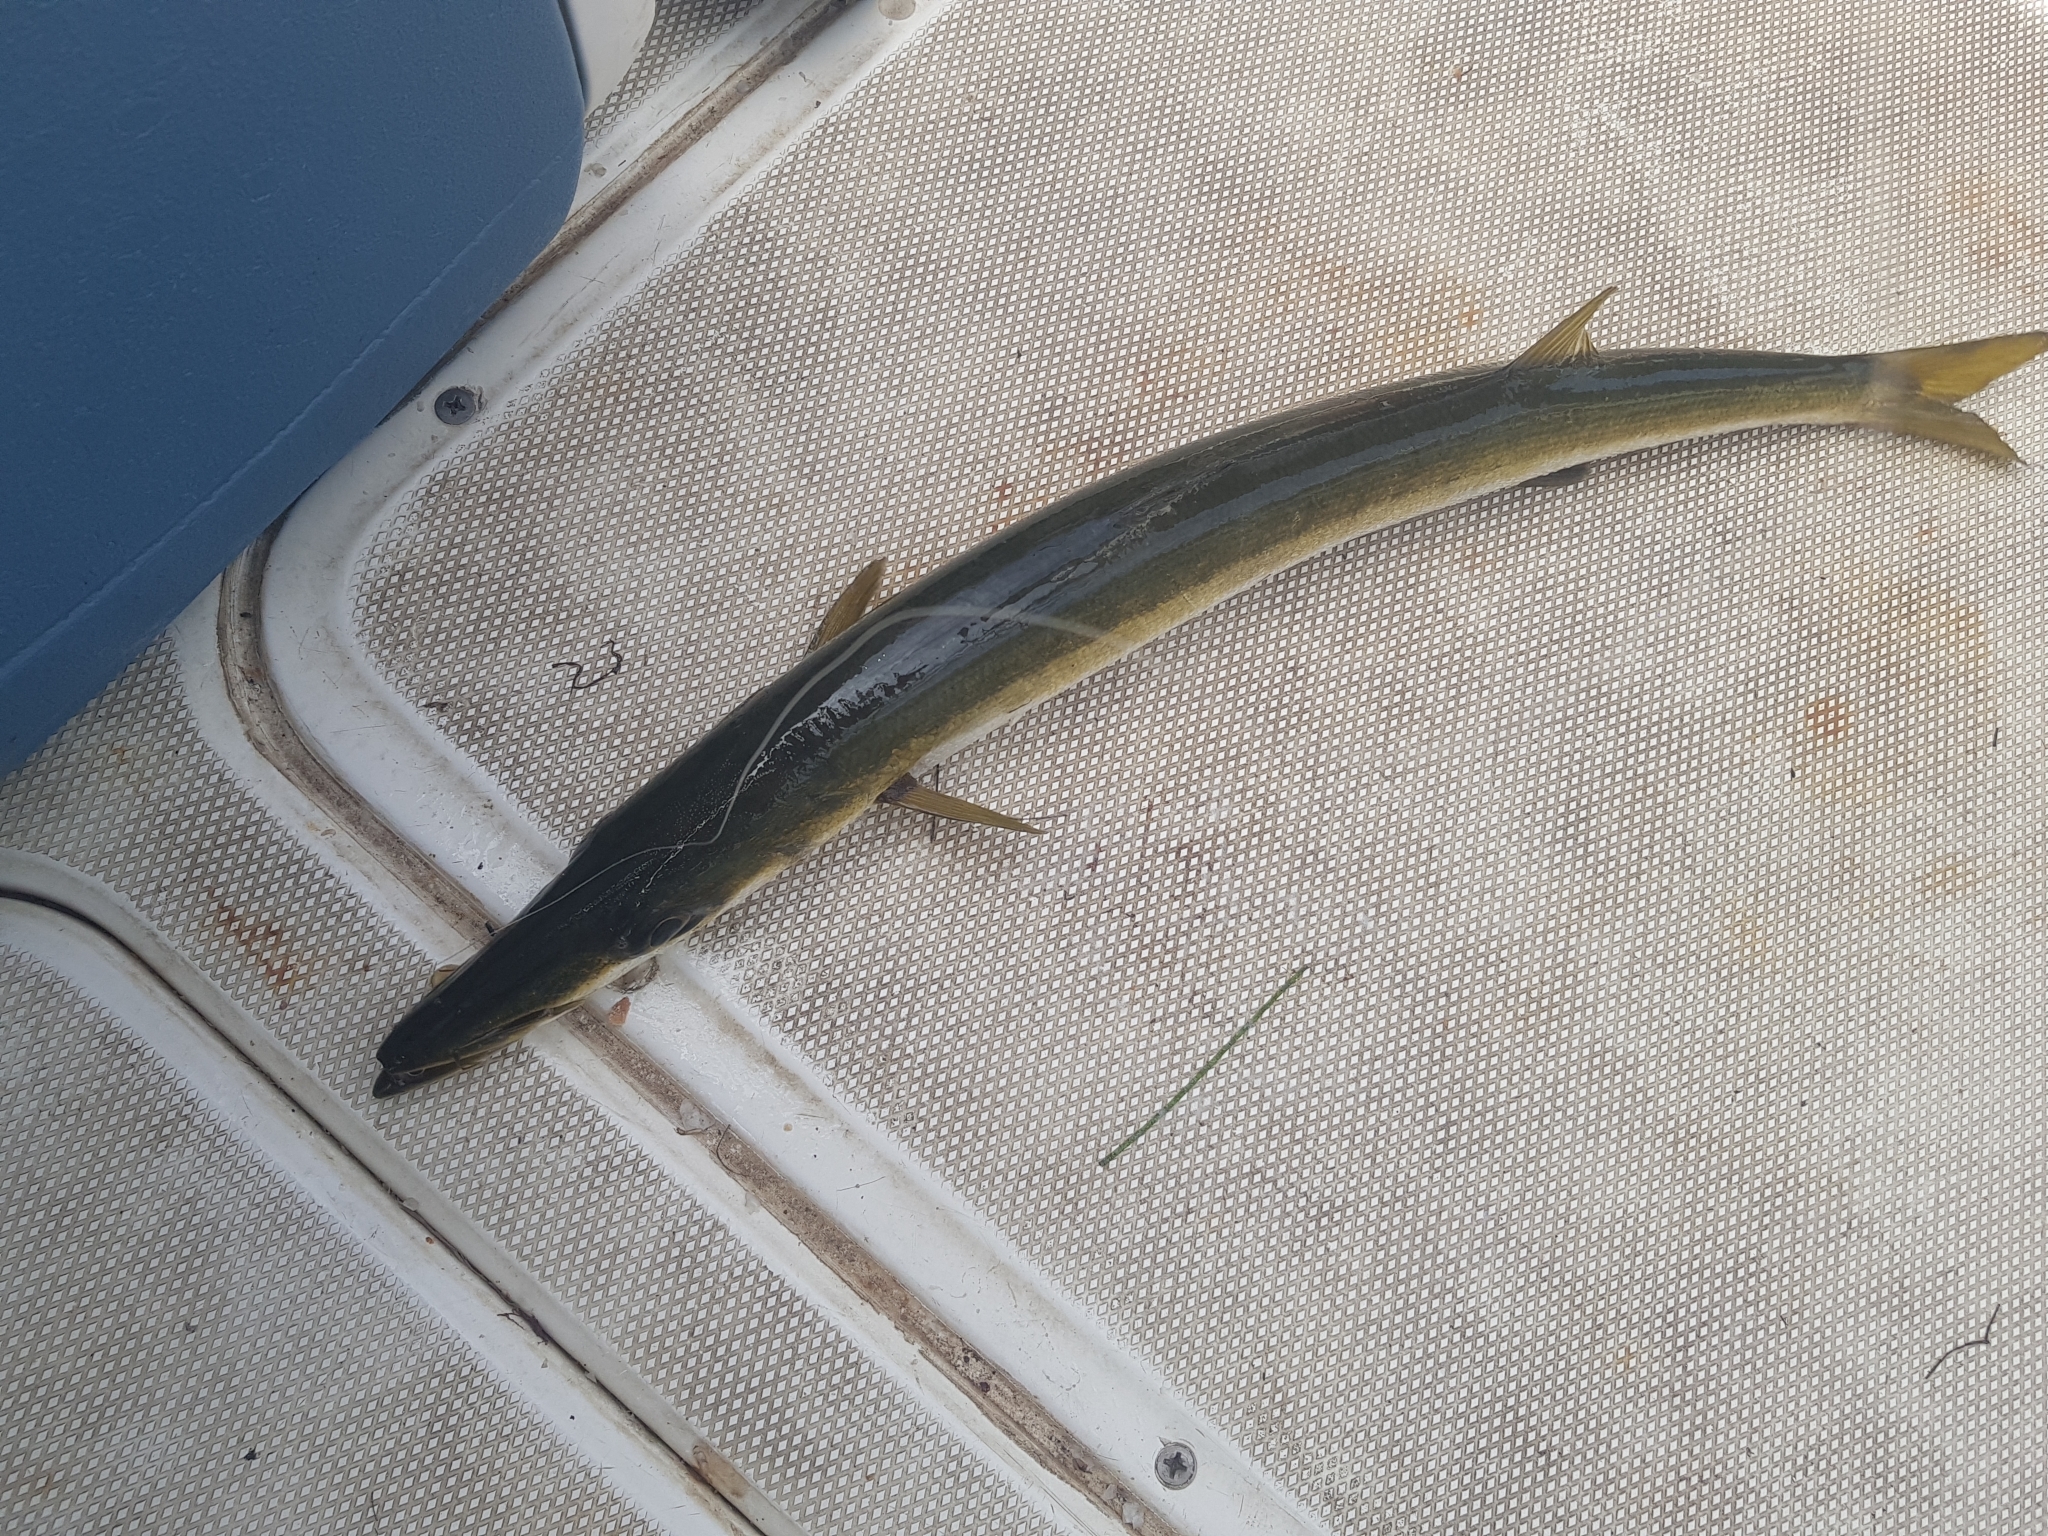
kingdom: Animalia
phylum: Chordata
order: Perciformes
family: Sphyraenidae
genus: Sphyraena
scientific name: Sphyraena novaehollandiae
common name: Arrow barracuda
